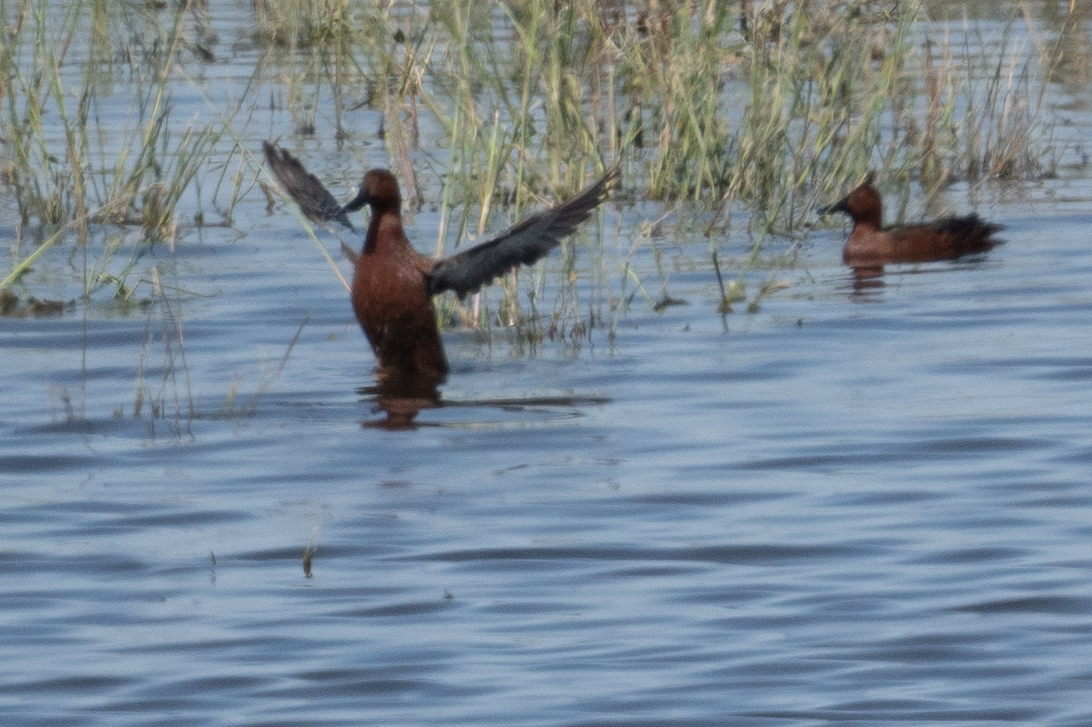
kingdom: Animalia
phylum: Chordata
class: Aves
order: Anseriformes
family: Anatidae
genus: Spatula
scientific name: Spatula cyanoptera
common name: Cinnamon teal
